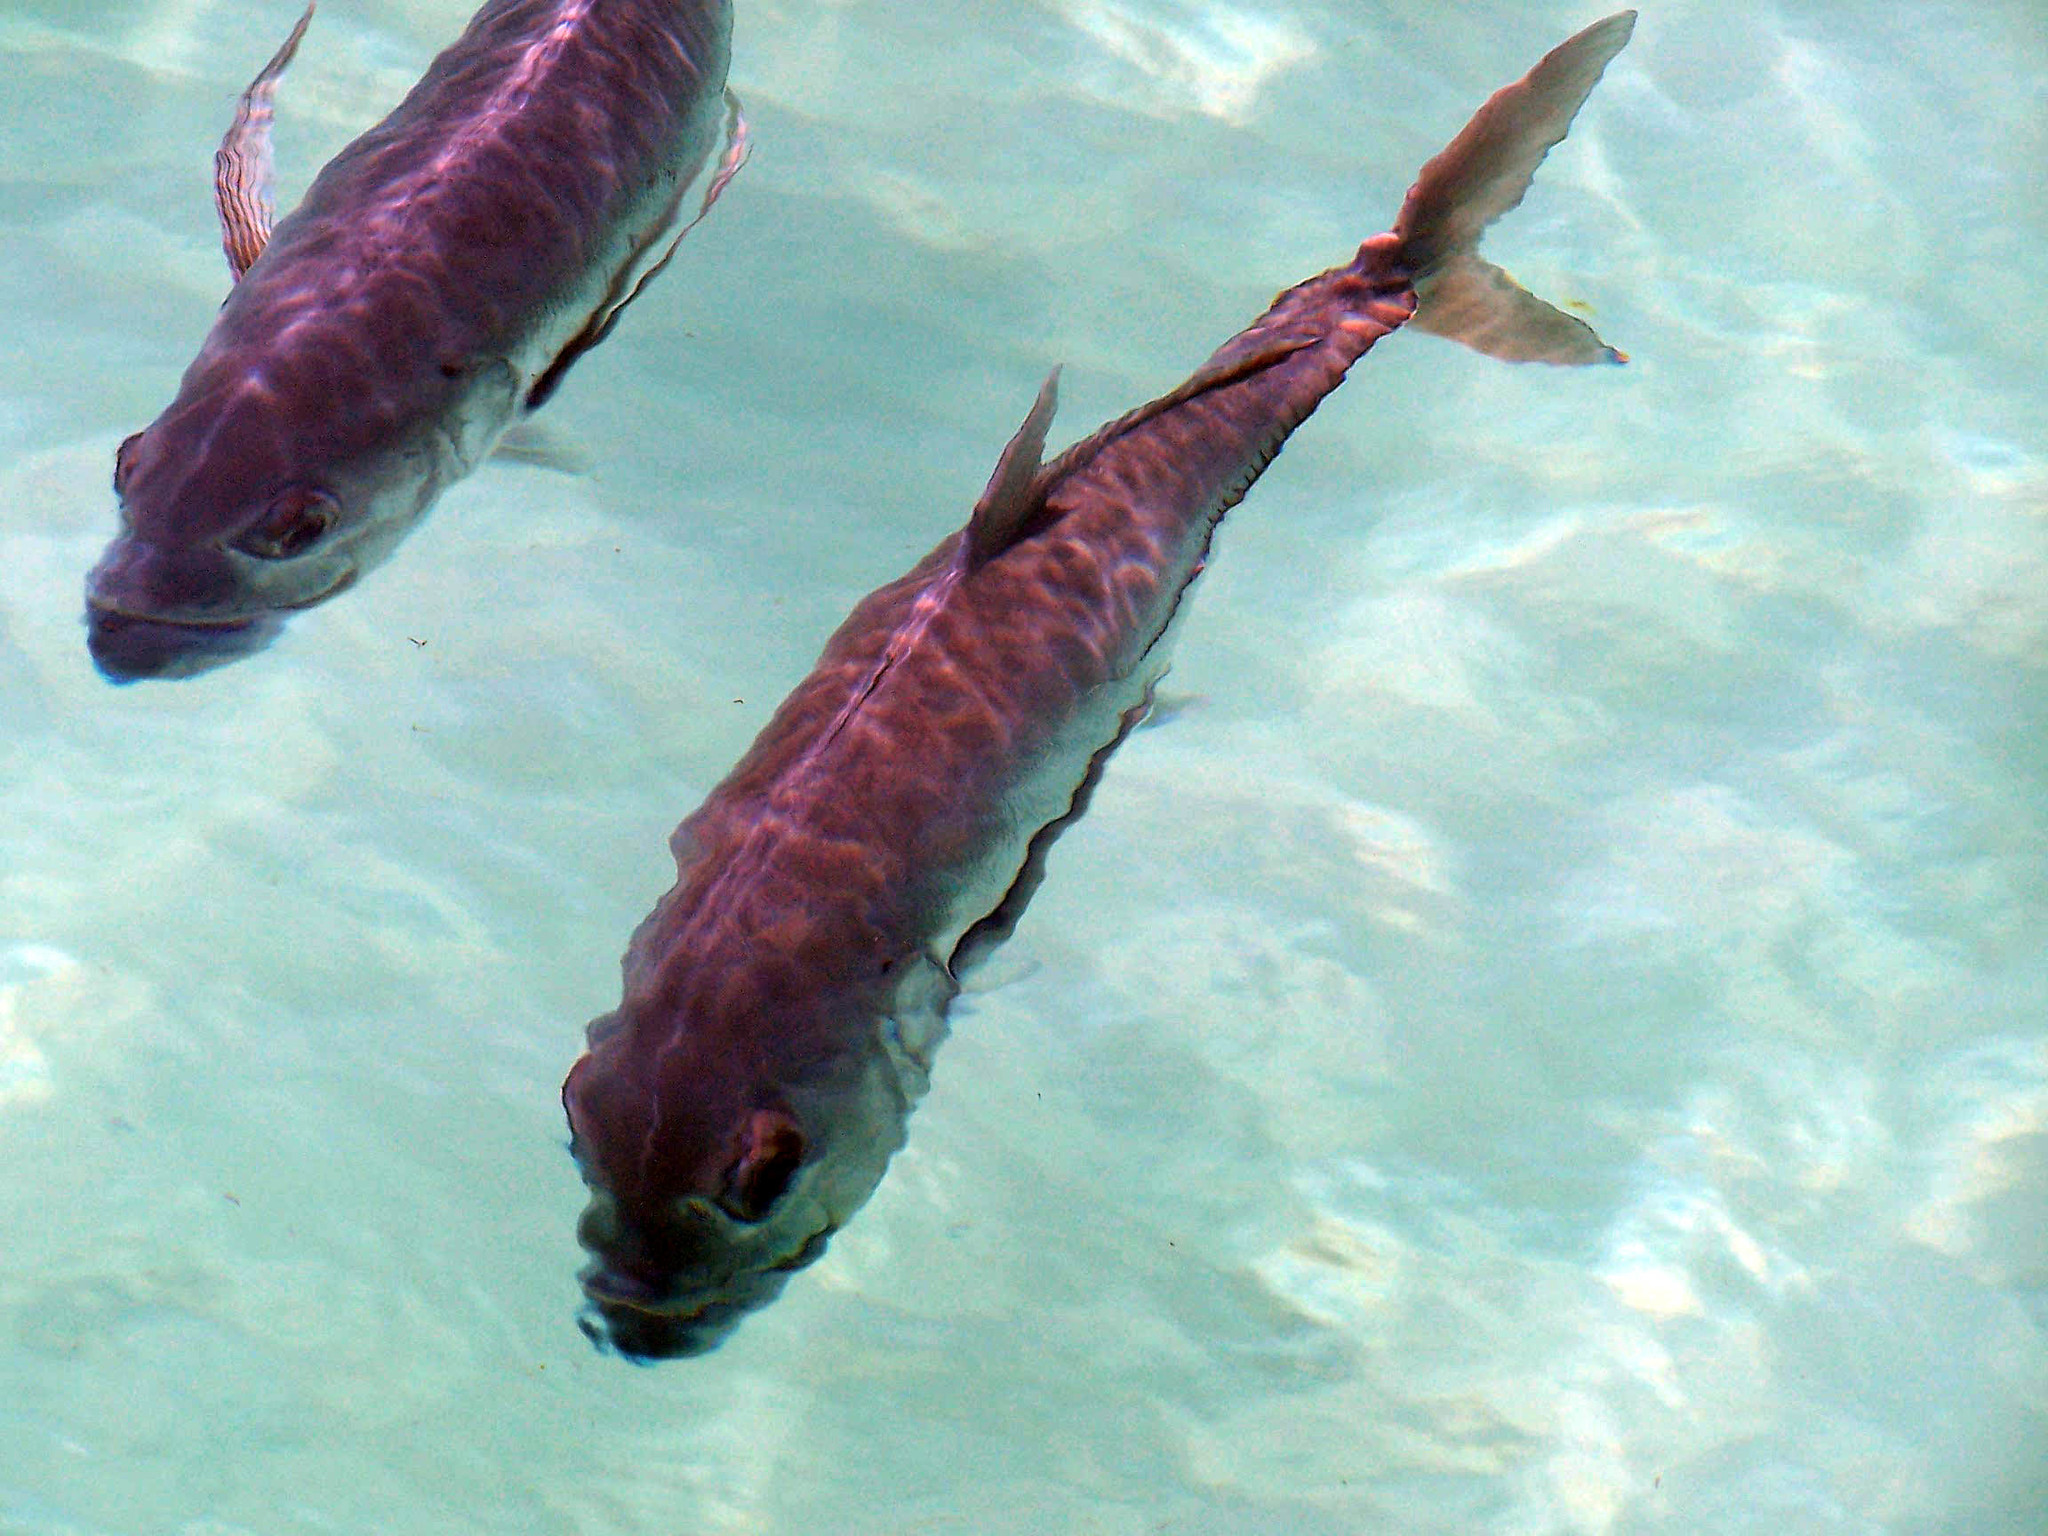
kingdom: Animalia
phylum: Chordata
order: Perciformes
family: Carangidae
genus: Caranx
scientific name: Caranx hippos
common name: Common jack
